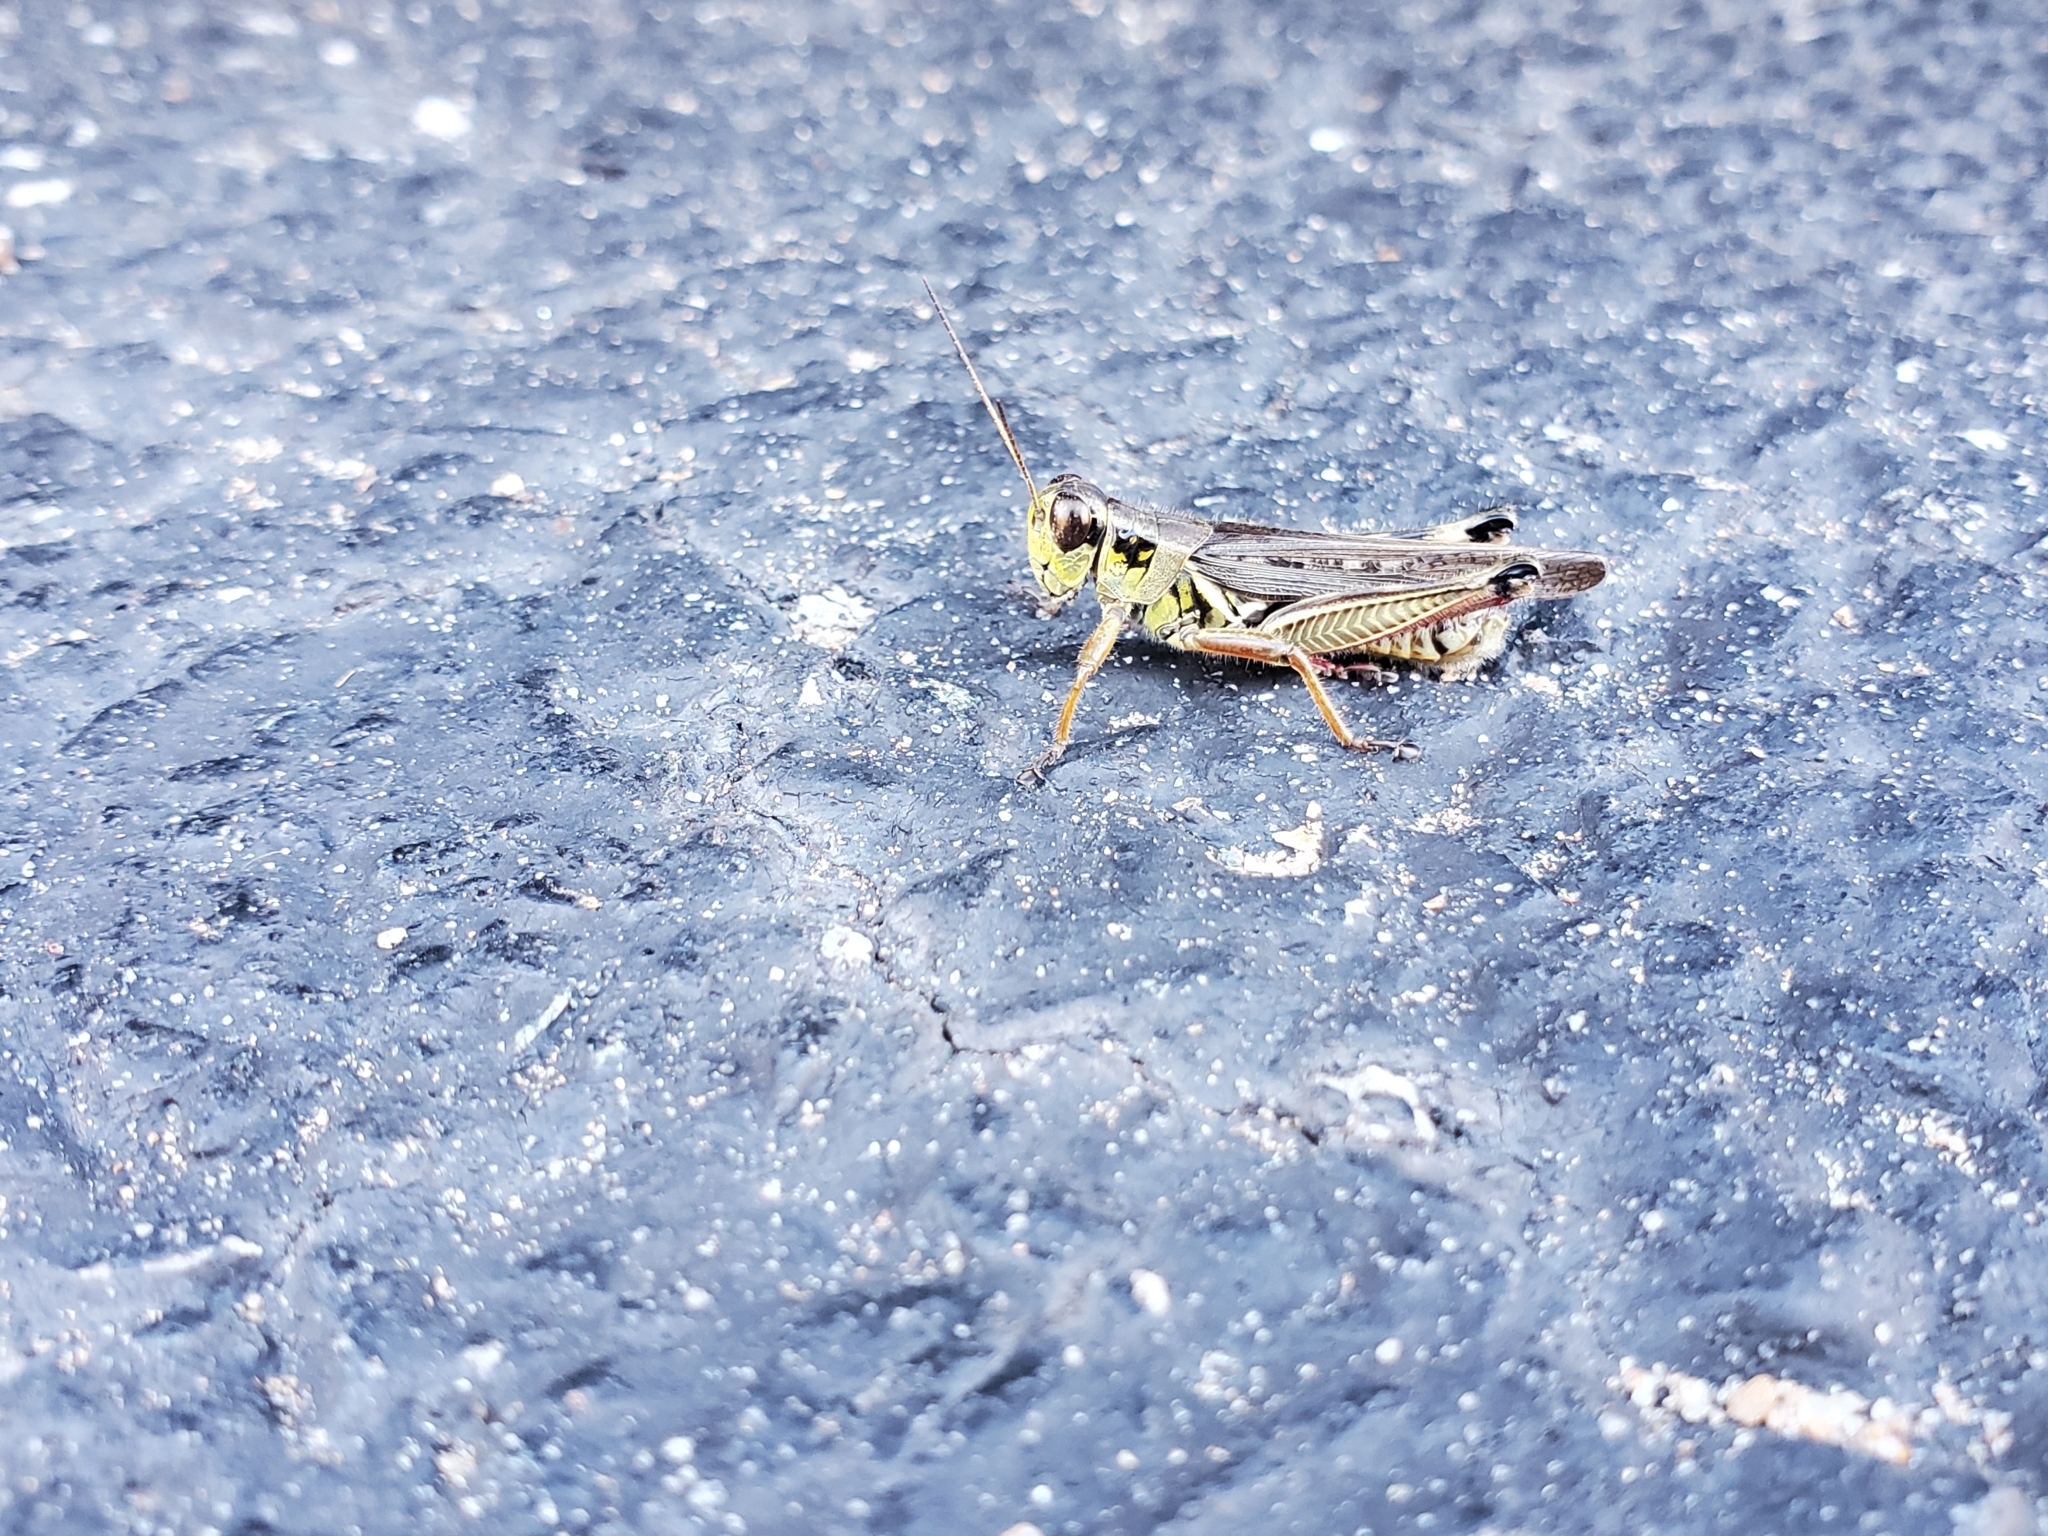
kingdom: Animalia
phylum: Arthropoda
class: Insecta
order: Orthoptera
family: Acrididae
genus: Melanoplus
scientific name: Melanoplus femurrubrum
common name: Red-legged grasshopper
